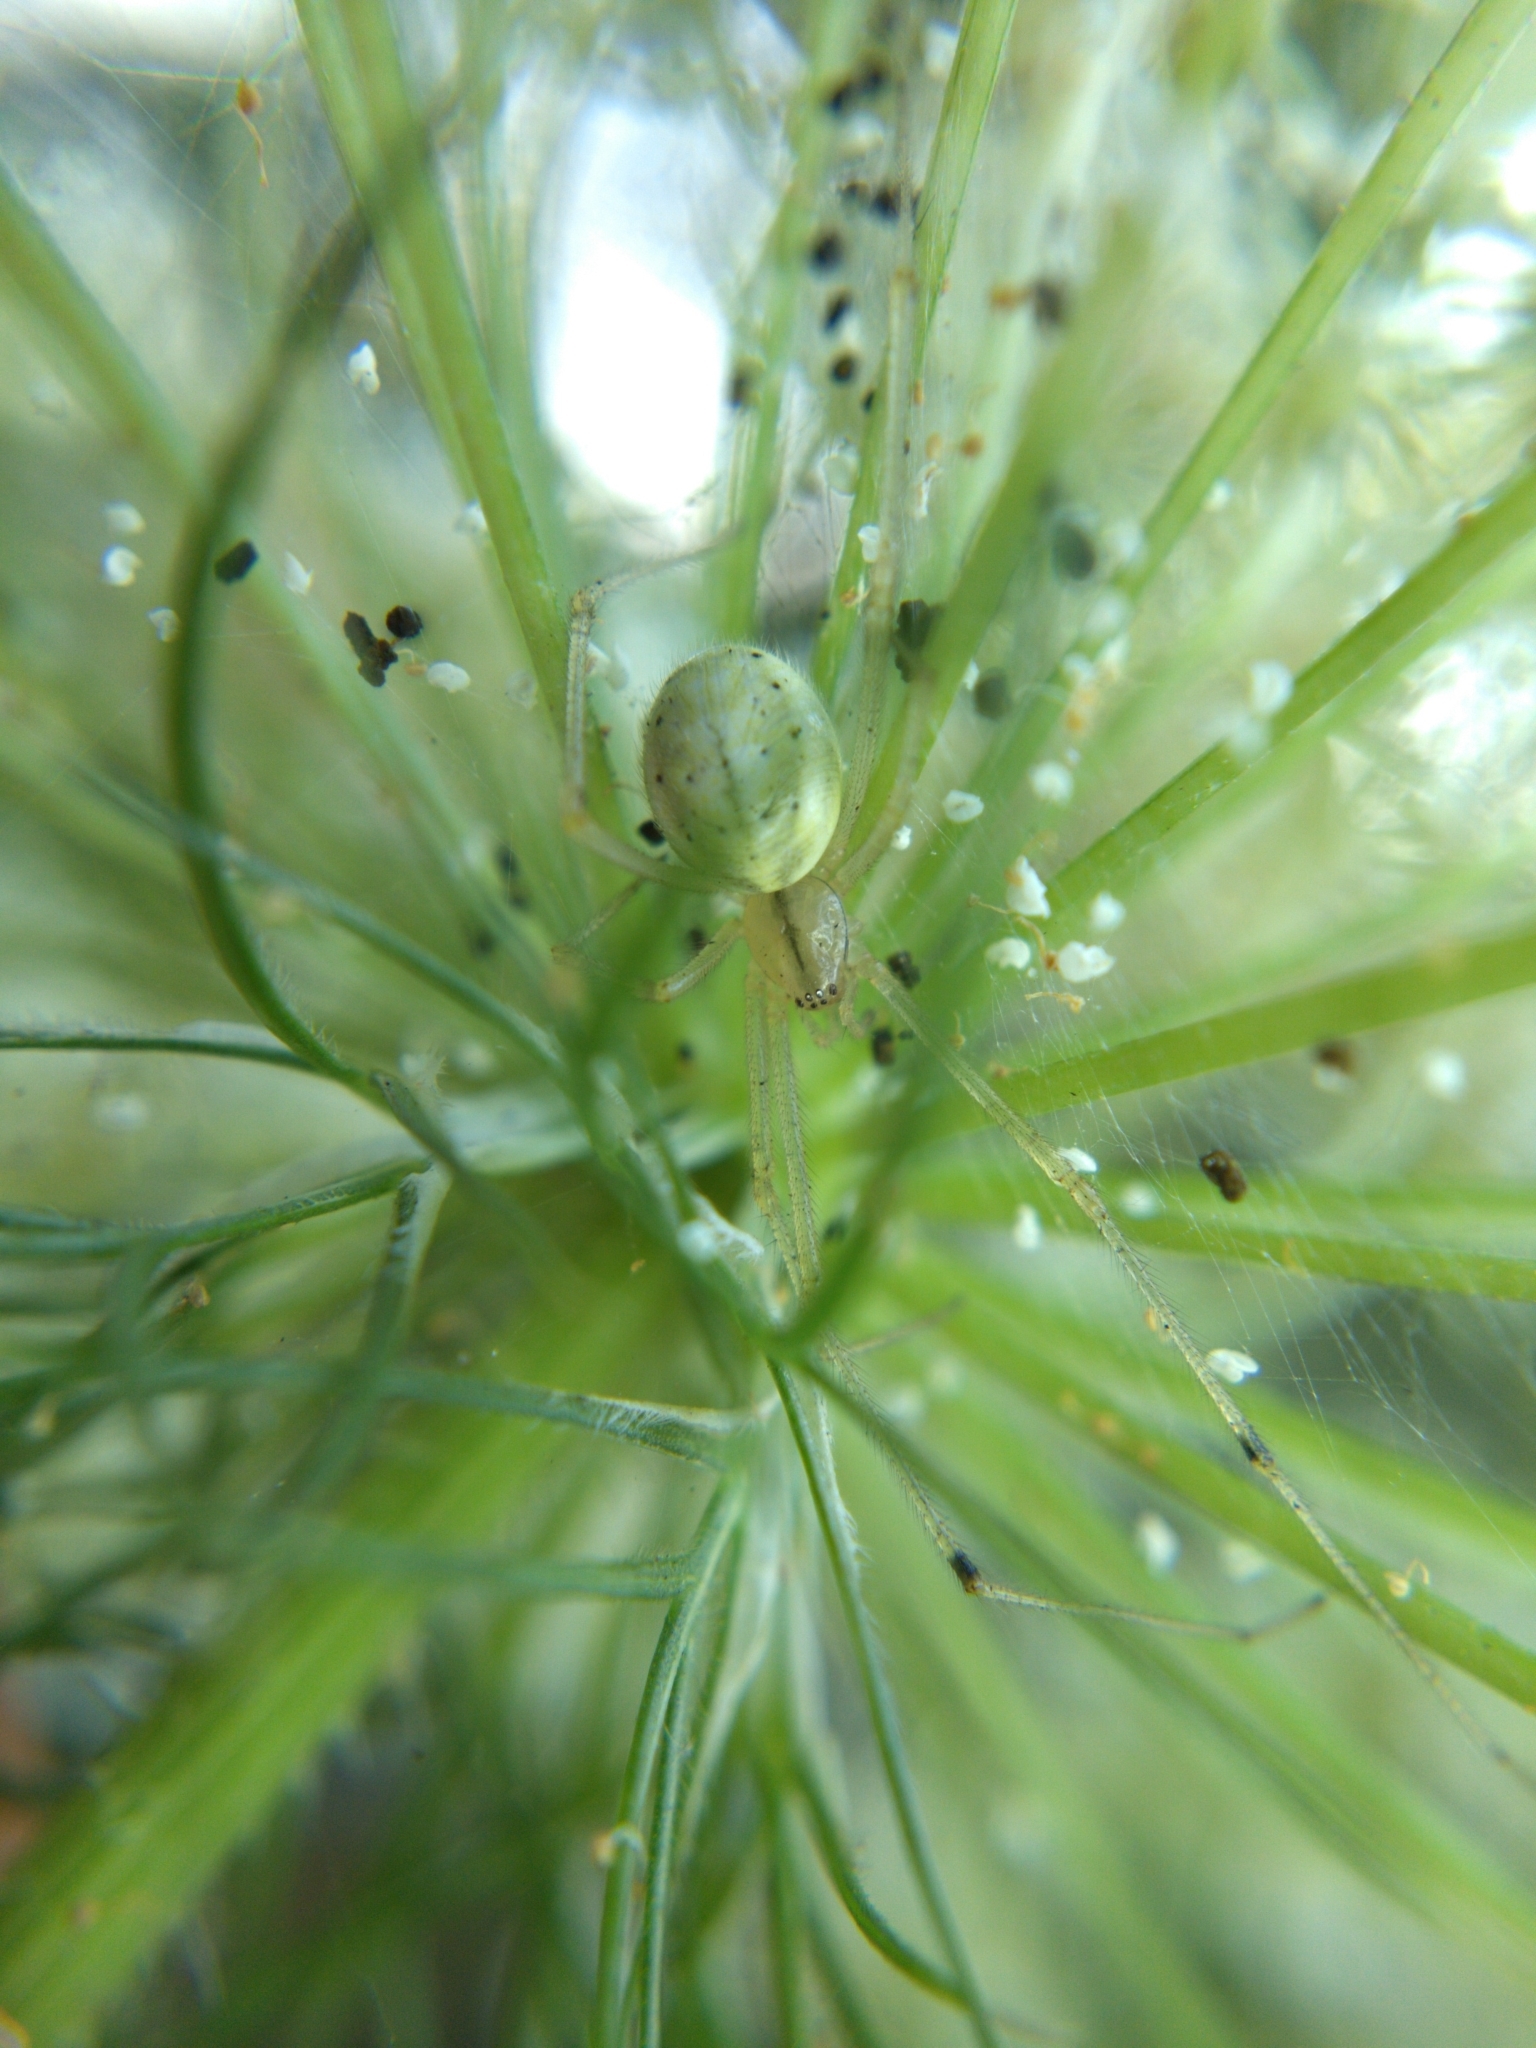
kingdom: Animalia
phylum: Arthropoda
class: Arachnida
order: Araneae
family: Theridiidae
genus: Enoplognatha
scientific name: Enoplognatha ovata
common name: Common candy-striped spider
